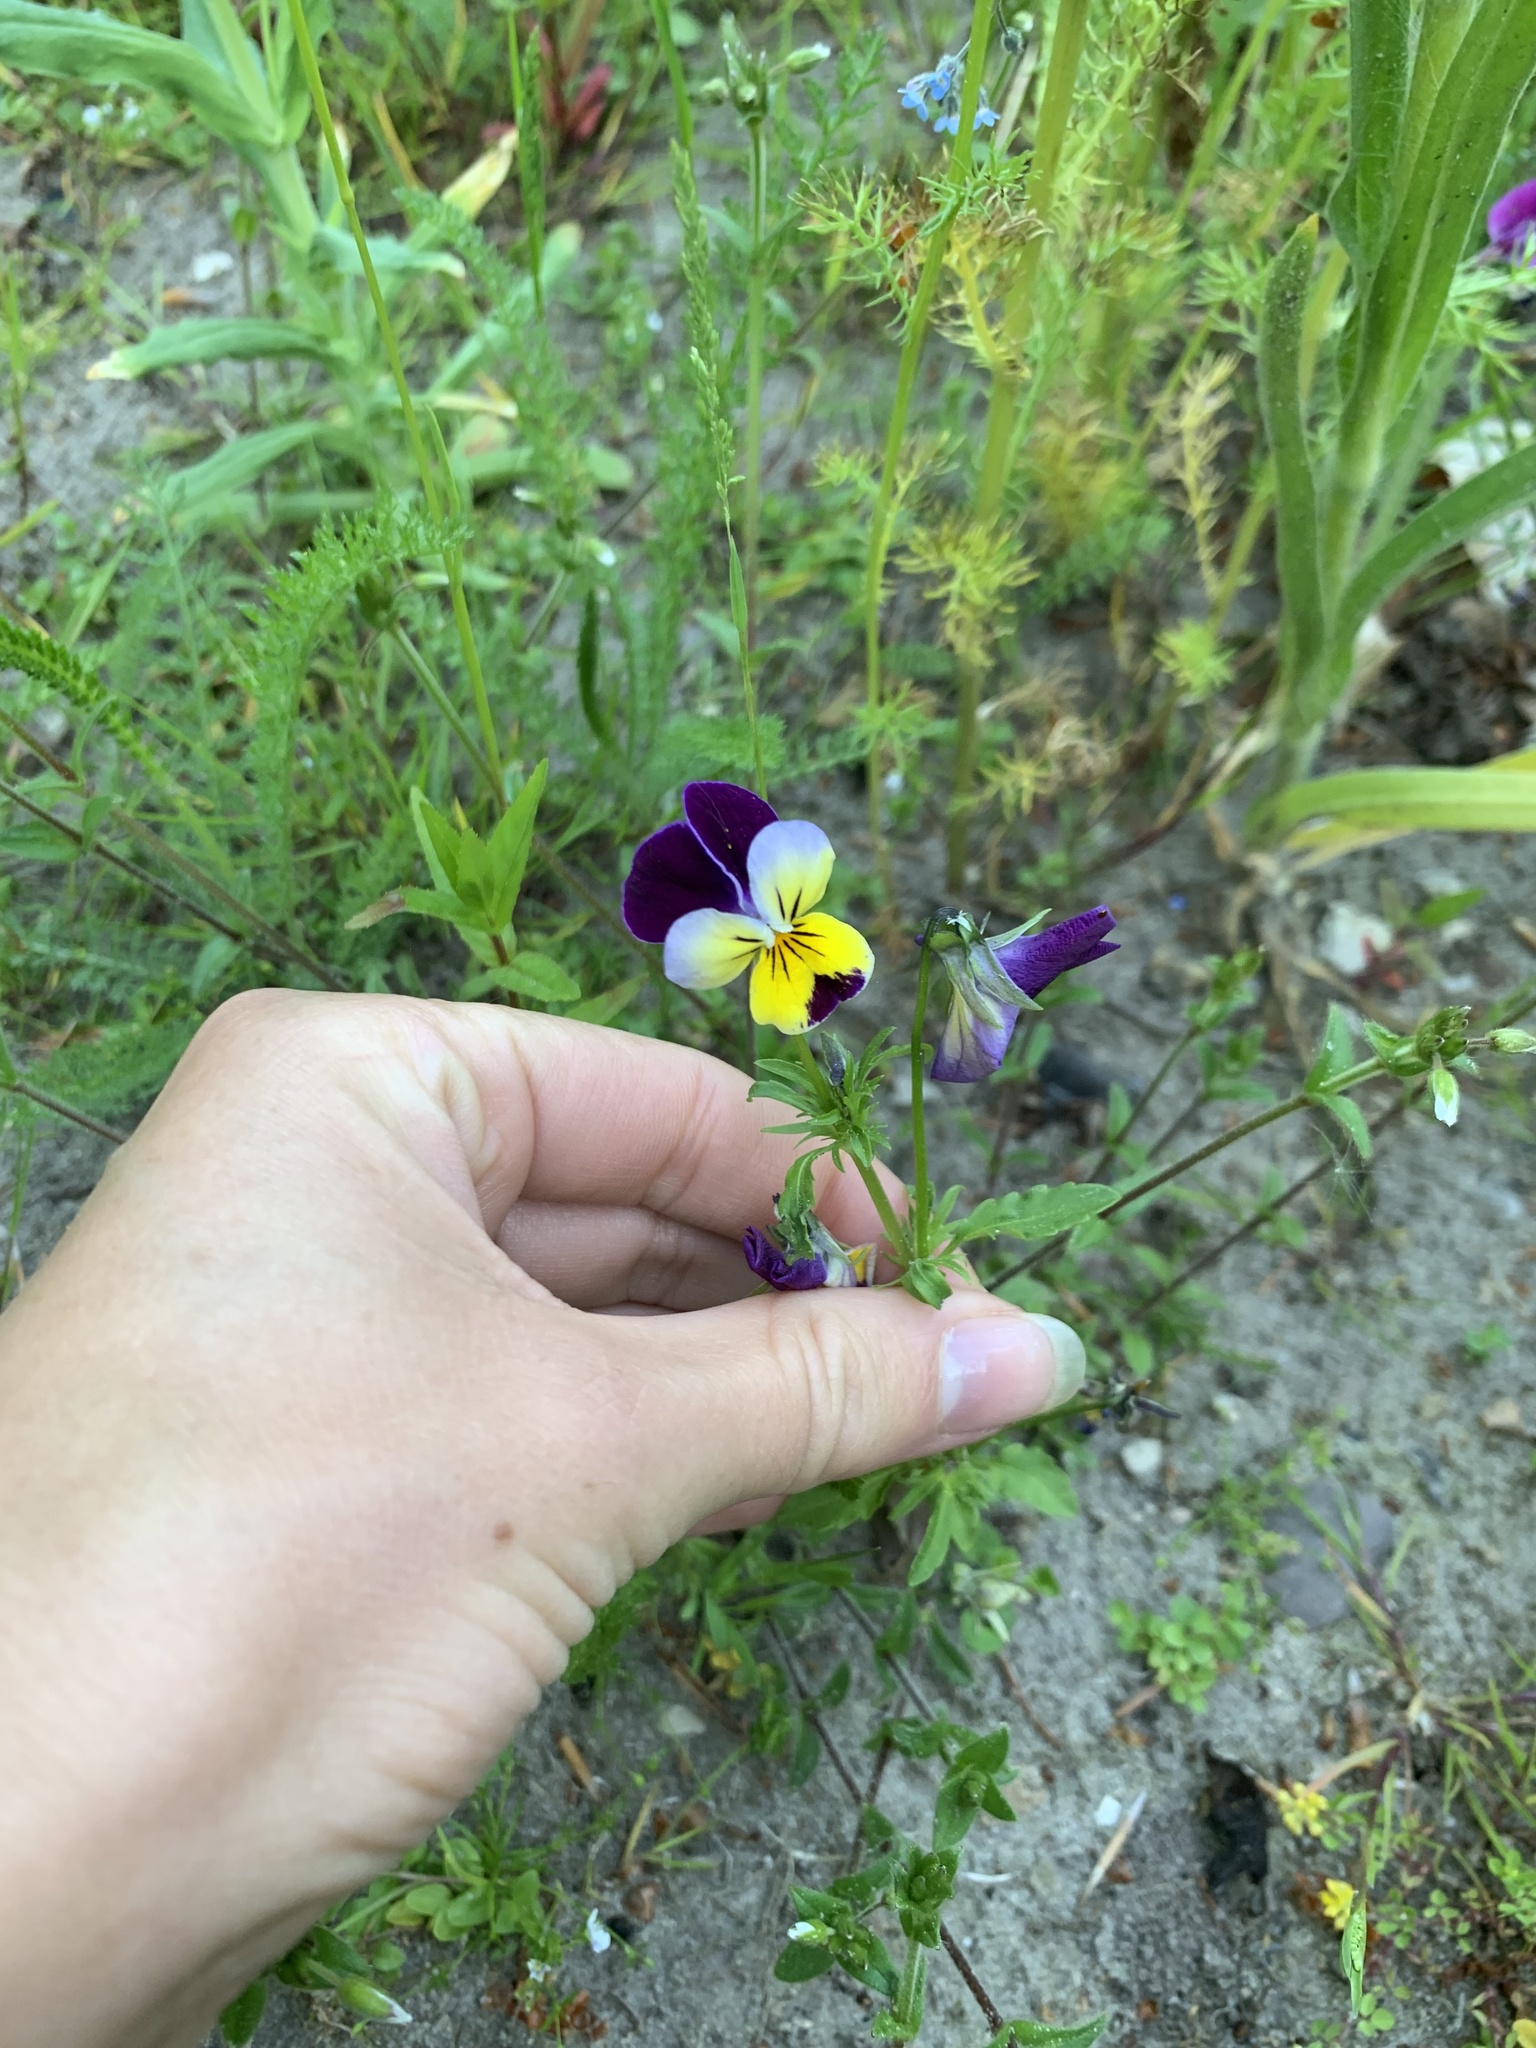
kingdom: Plantae
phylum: Tracheophyta
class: Magnoliopsida
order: Malpighiales
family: Violaceae
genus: Viola
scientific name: Viola williamsii
